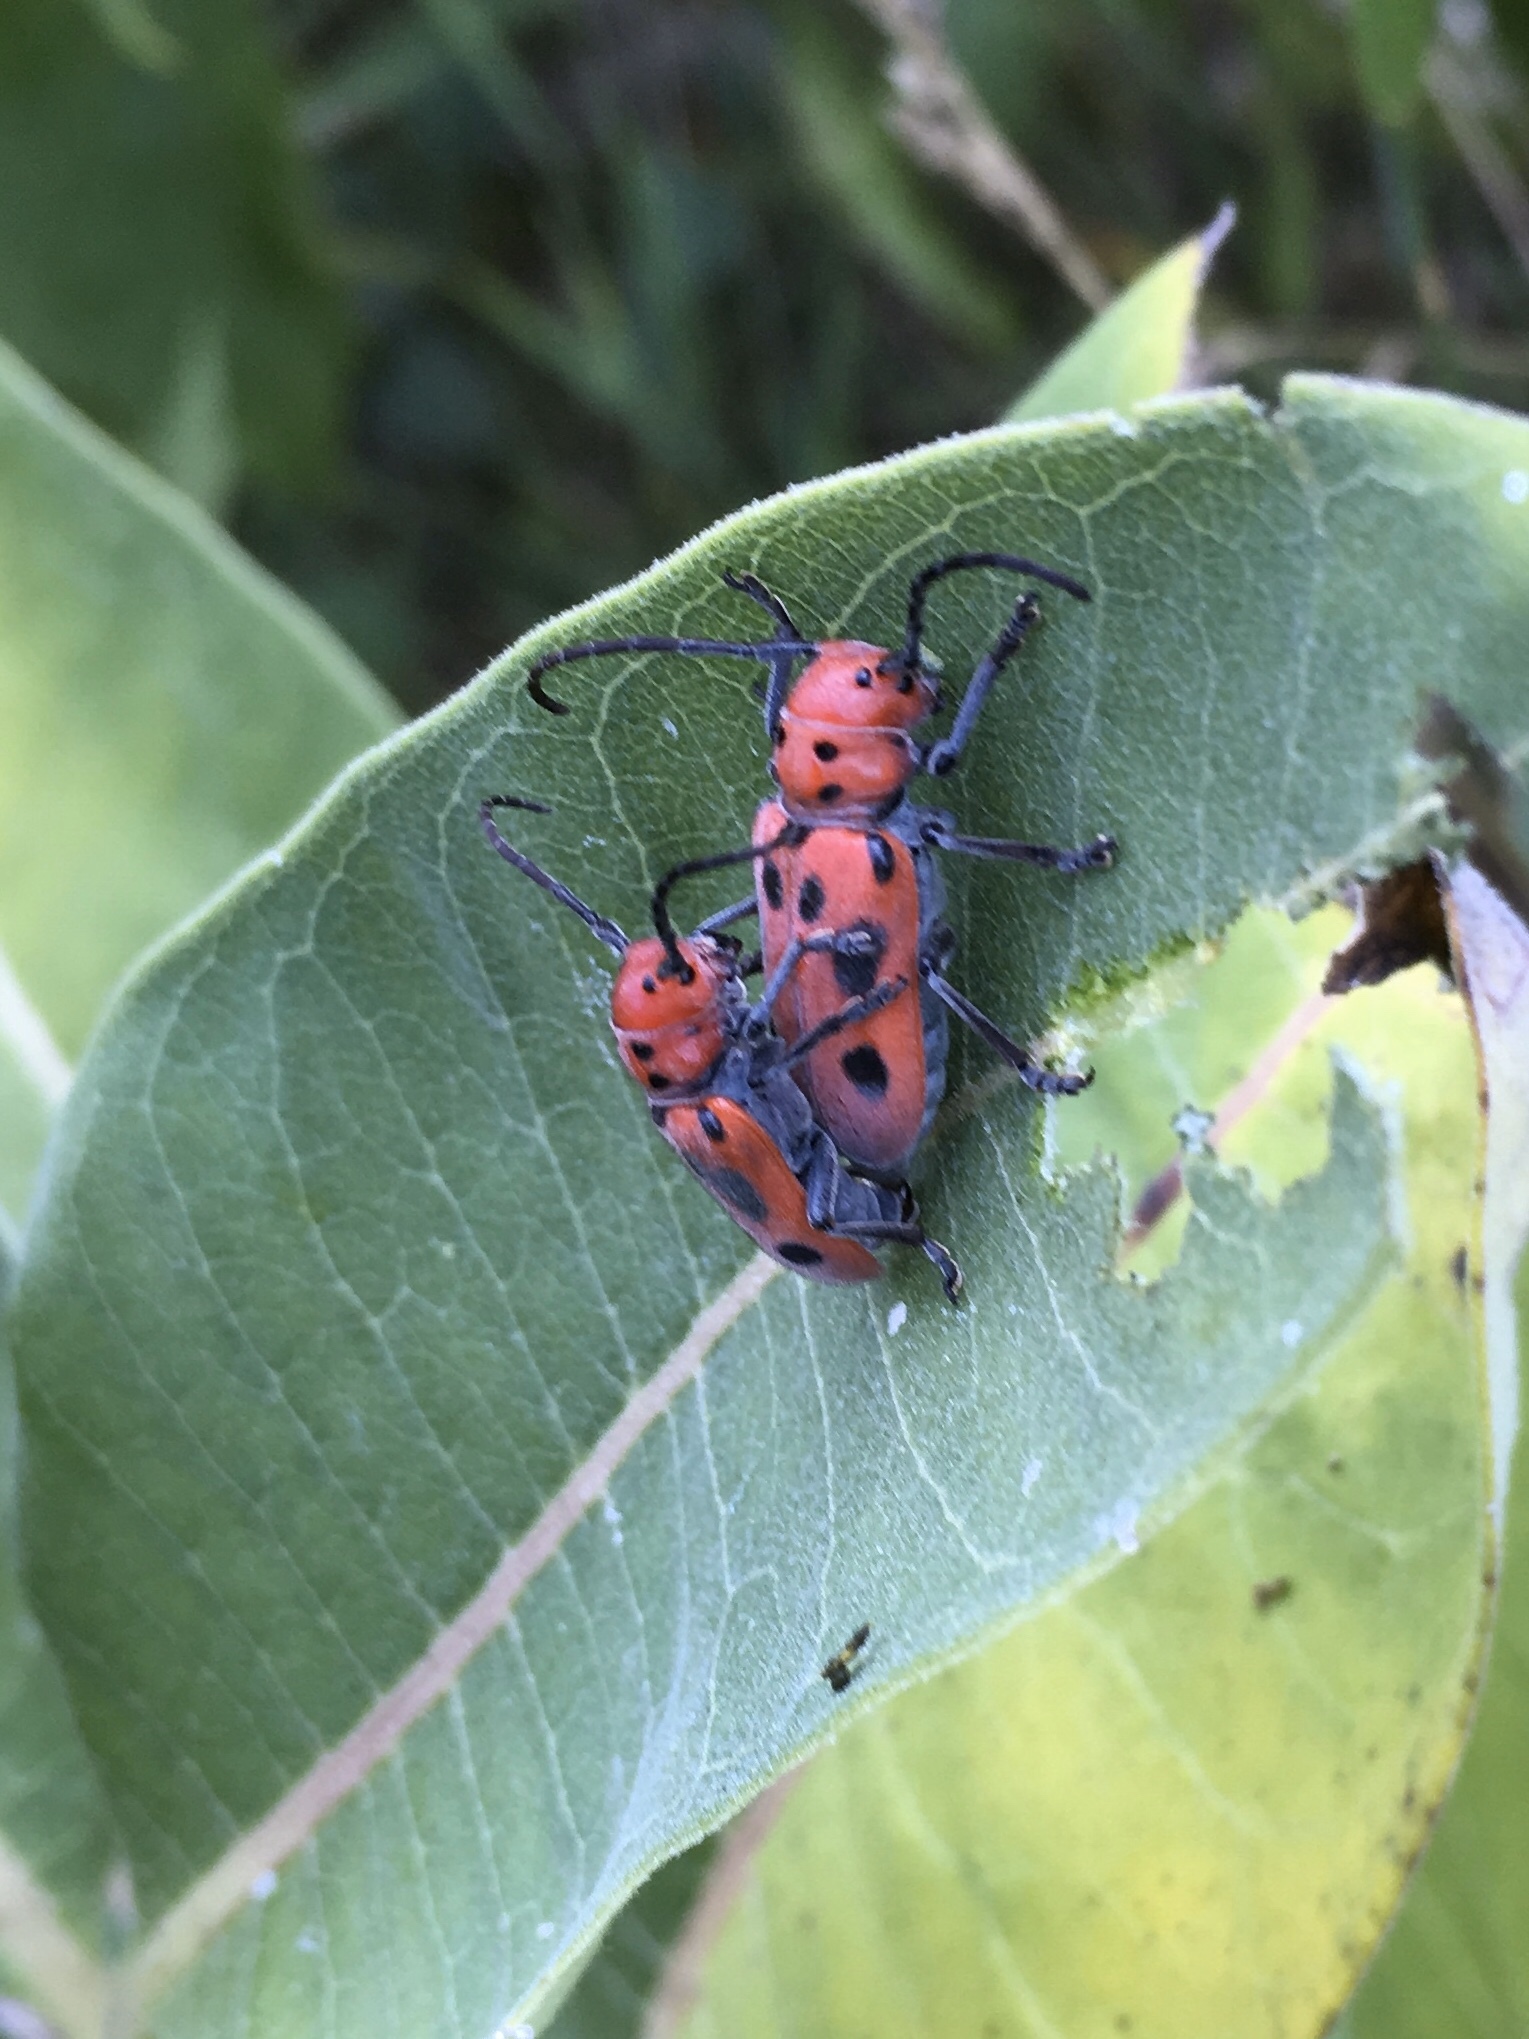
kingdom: Animalia
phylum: Arthropoda
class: Insecta
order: Coleoptera
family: Cerambycidae
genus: Tetraopes
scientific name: Tetraopes tetrophthalmus
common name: Red milkweed beetle
